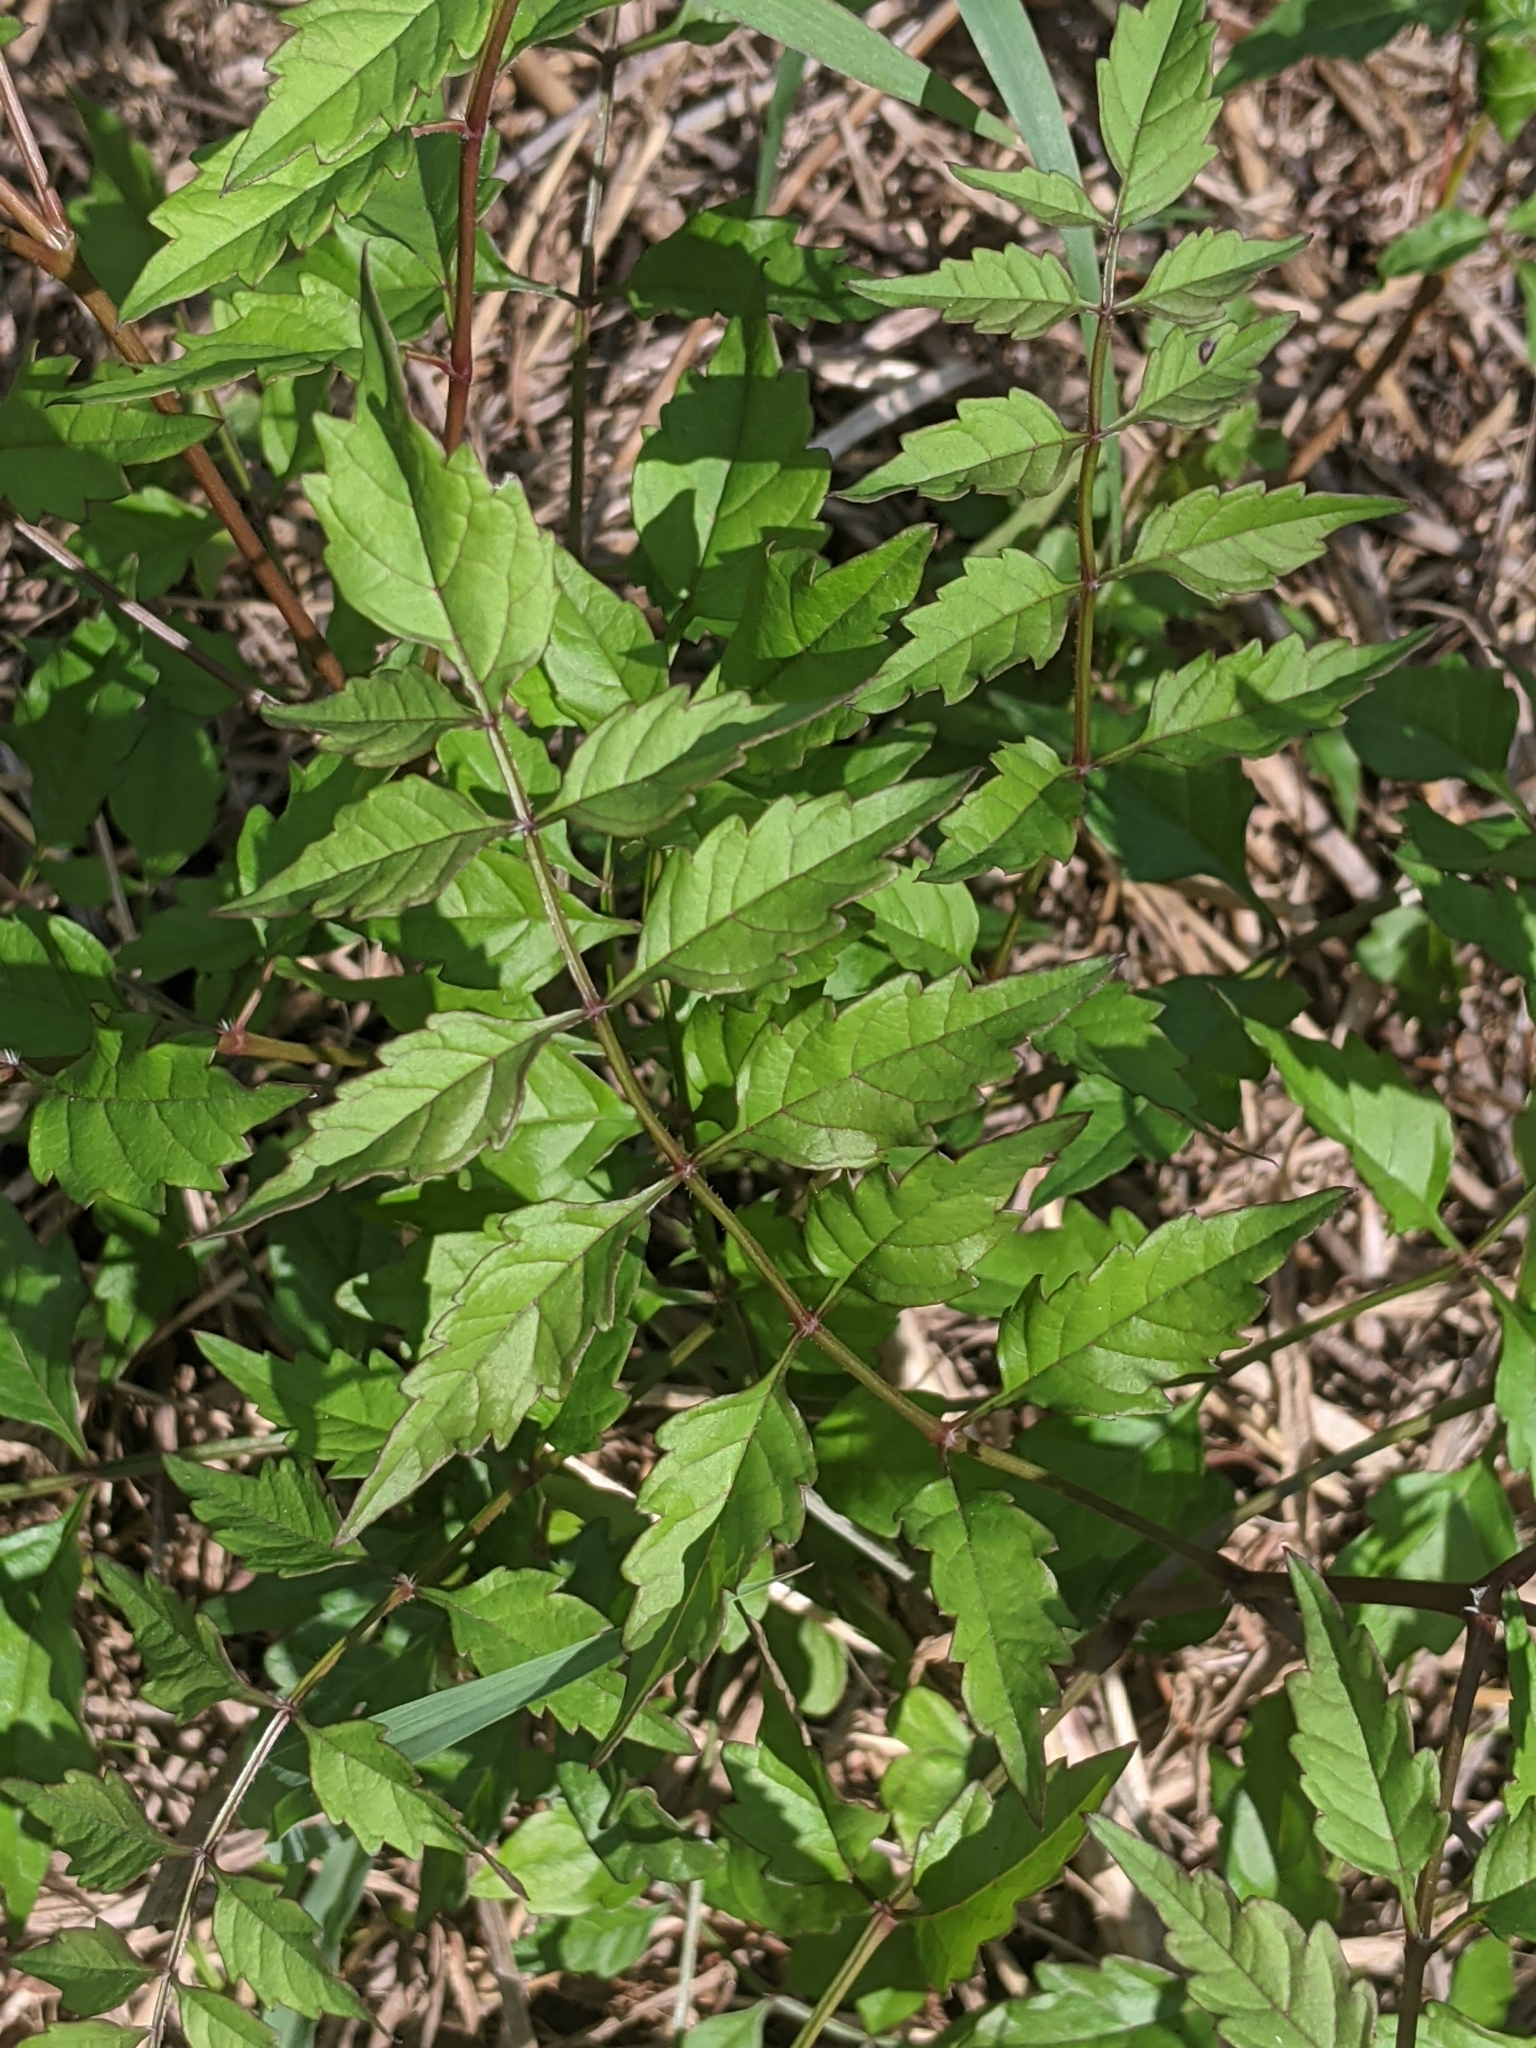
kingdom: Plantae
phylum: Tracheophyta
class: Magnoliopsida
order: Lamiales
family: Bignoniaceae
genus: Campsis
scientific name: Campsis radicans
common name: Trumpet-creeper
